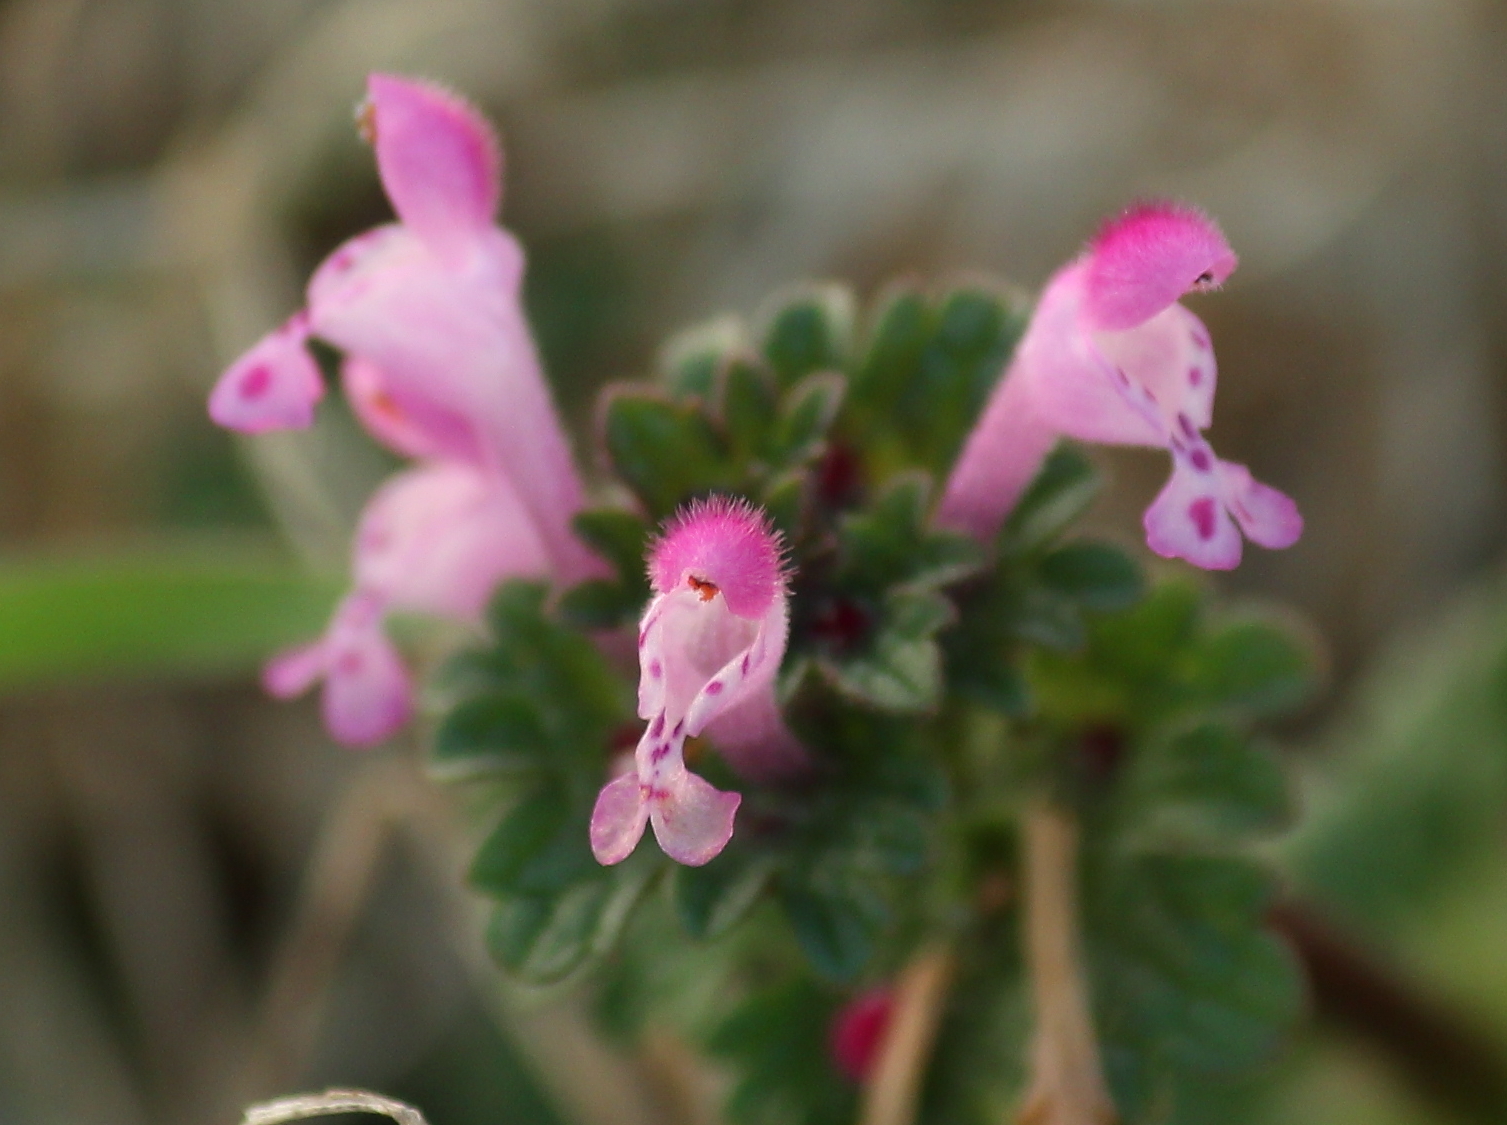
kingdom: Plantae
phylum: Tracheophyta
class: Magnoliopsida
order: Lamiales
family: Lamiaceae
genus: Lamium
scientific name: Lamium amplexicaule
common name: Henbit dead-nettle
